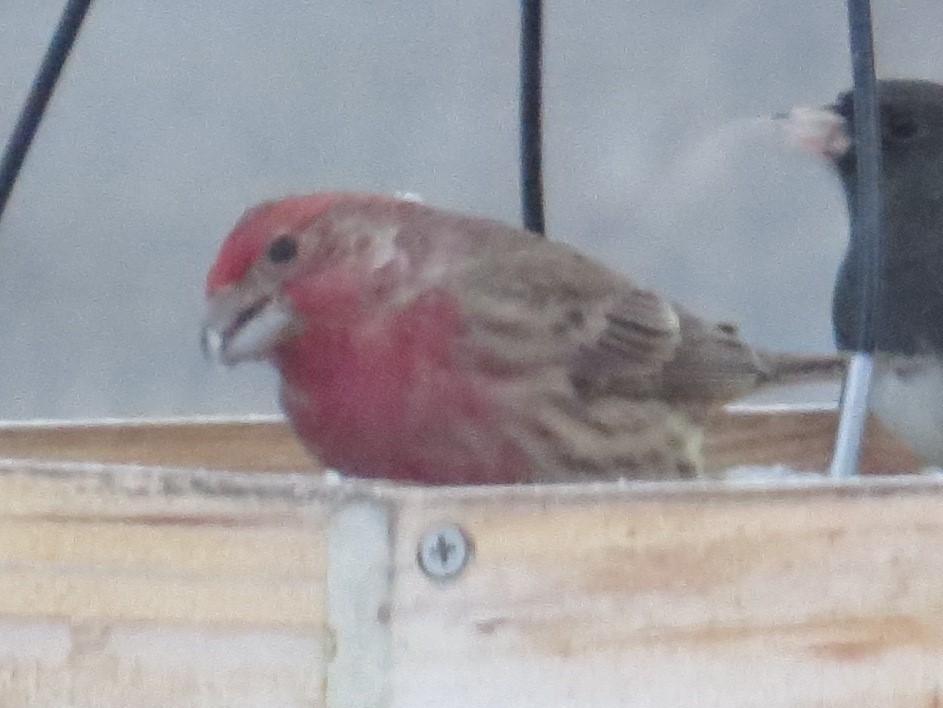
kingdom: Animalia
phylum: Chordata
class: Aves
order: Passeriformes
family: Fringillidae
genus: Haemorhous
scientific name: Haemorhous mexicanus
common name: House finch
